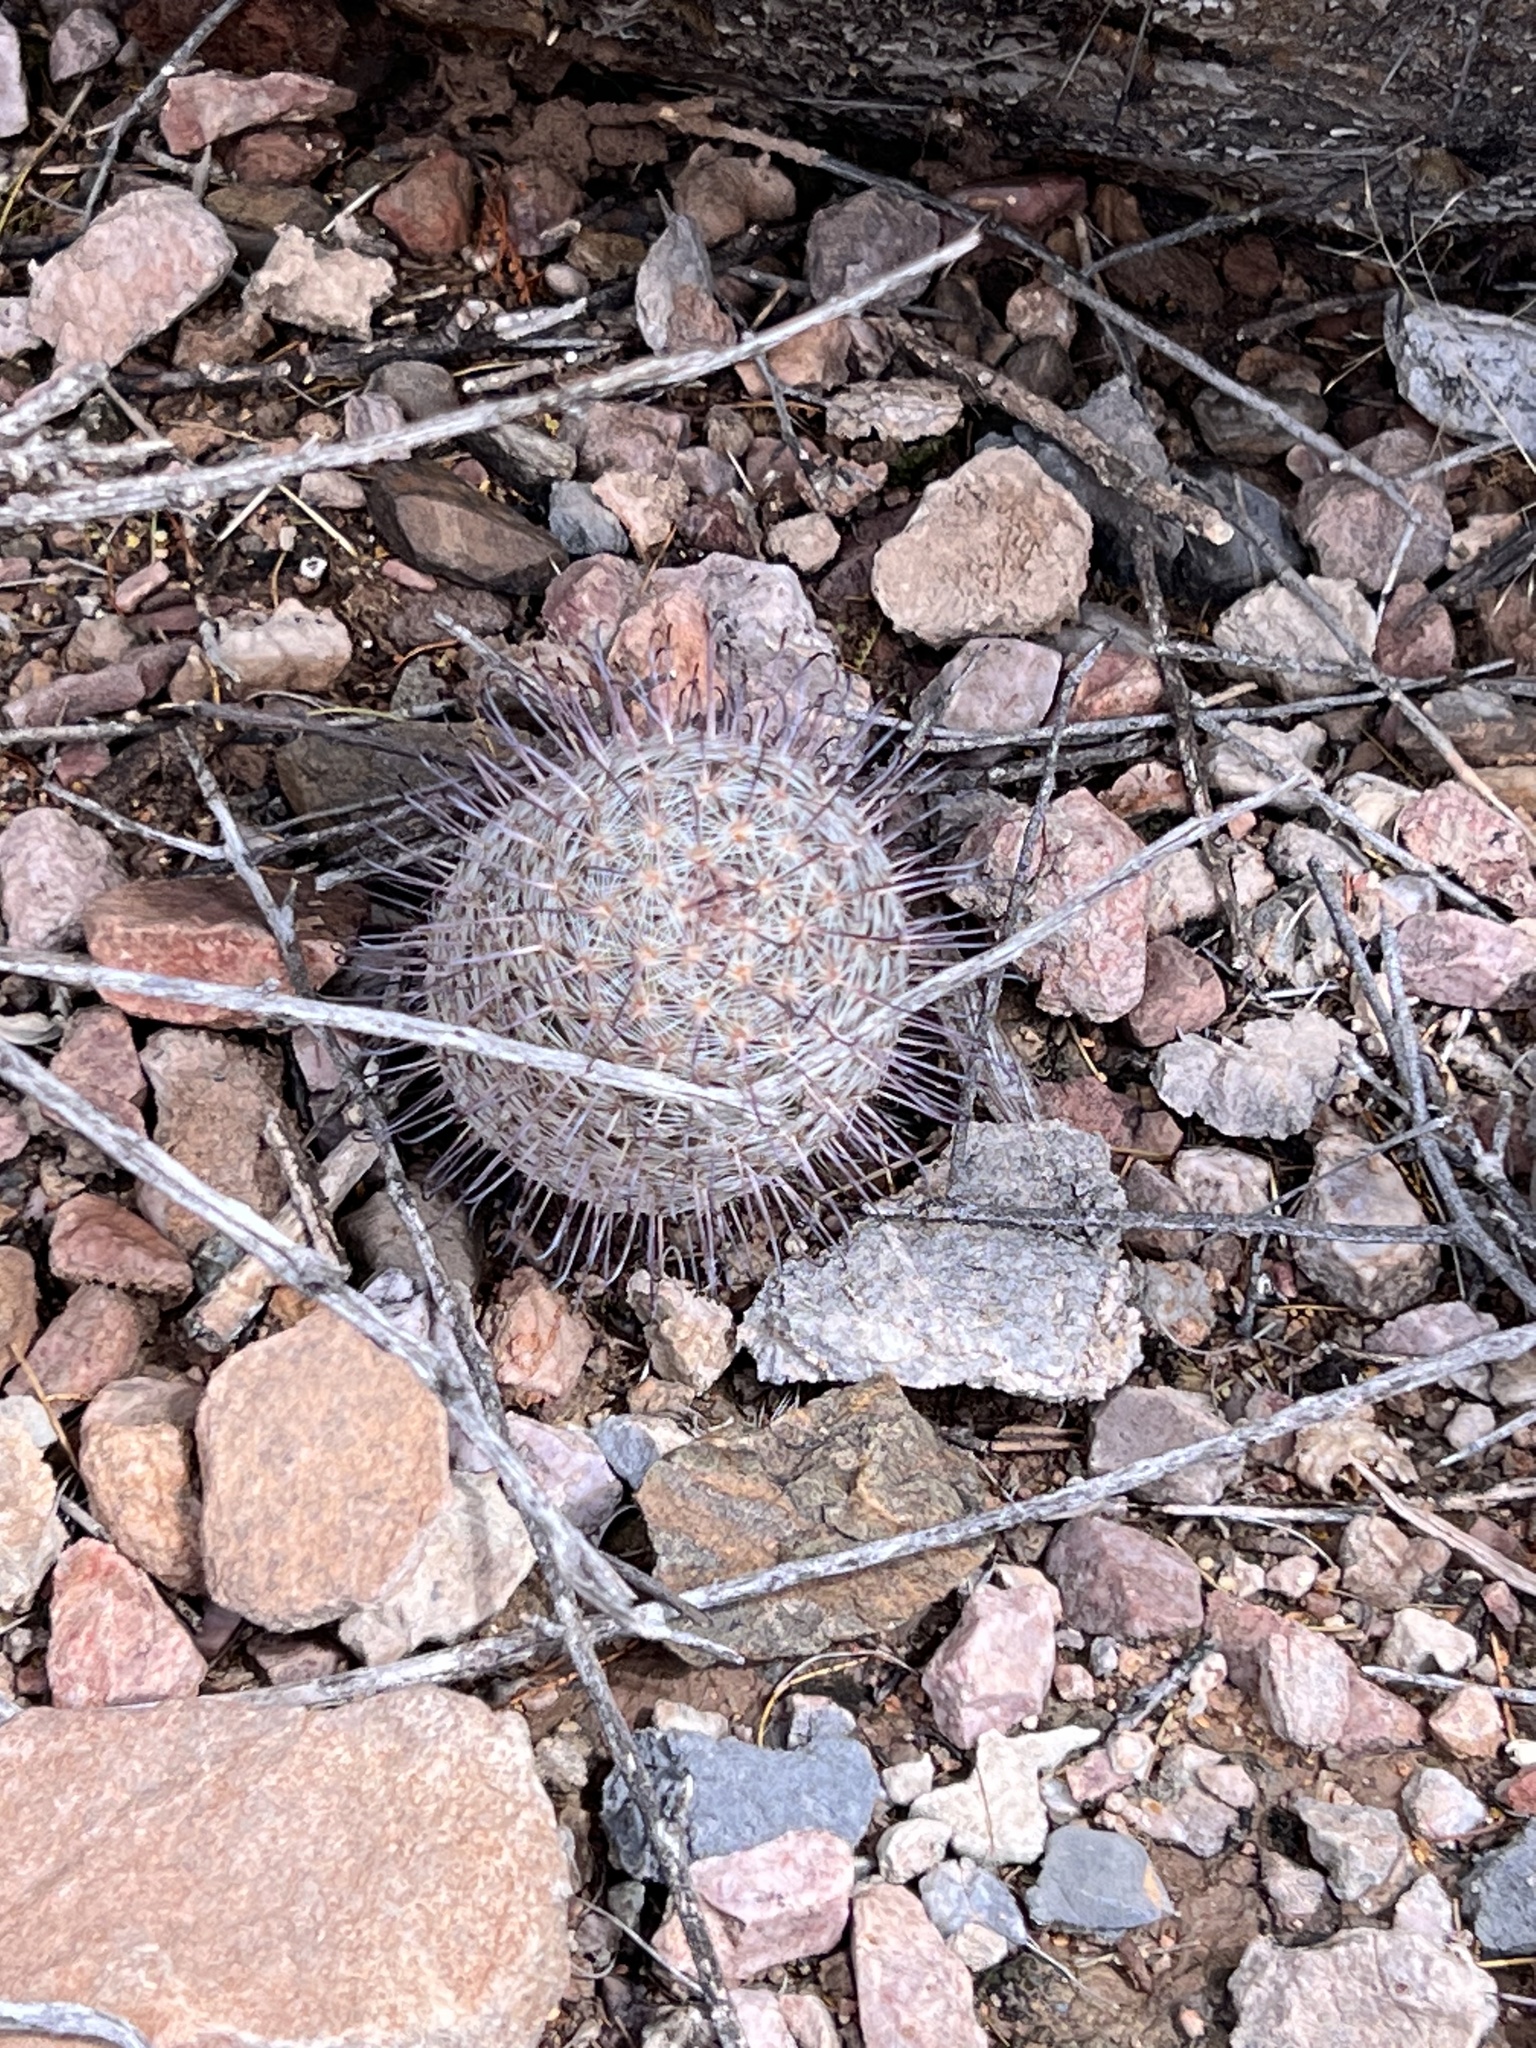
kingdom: Plantae
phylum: Tracheophyta
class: Magnoliopsida
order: Caryophyllales
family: Cactaceae
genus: Cochemiea
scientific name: Cochemiea grahamii
